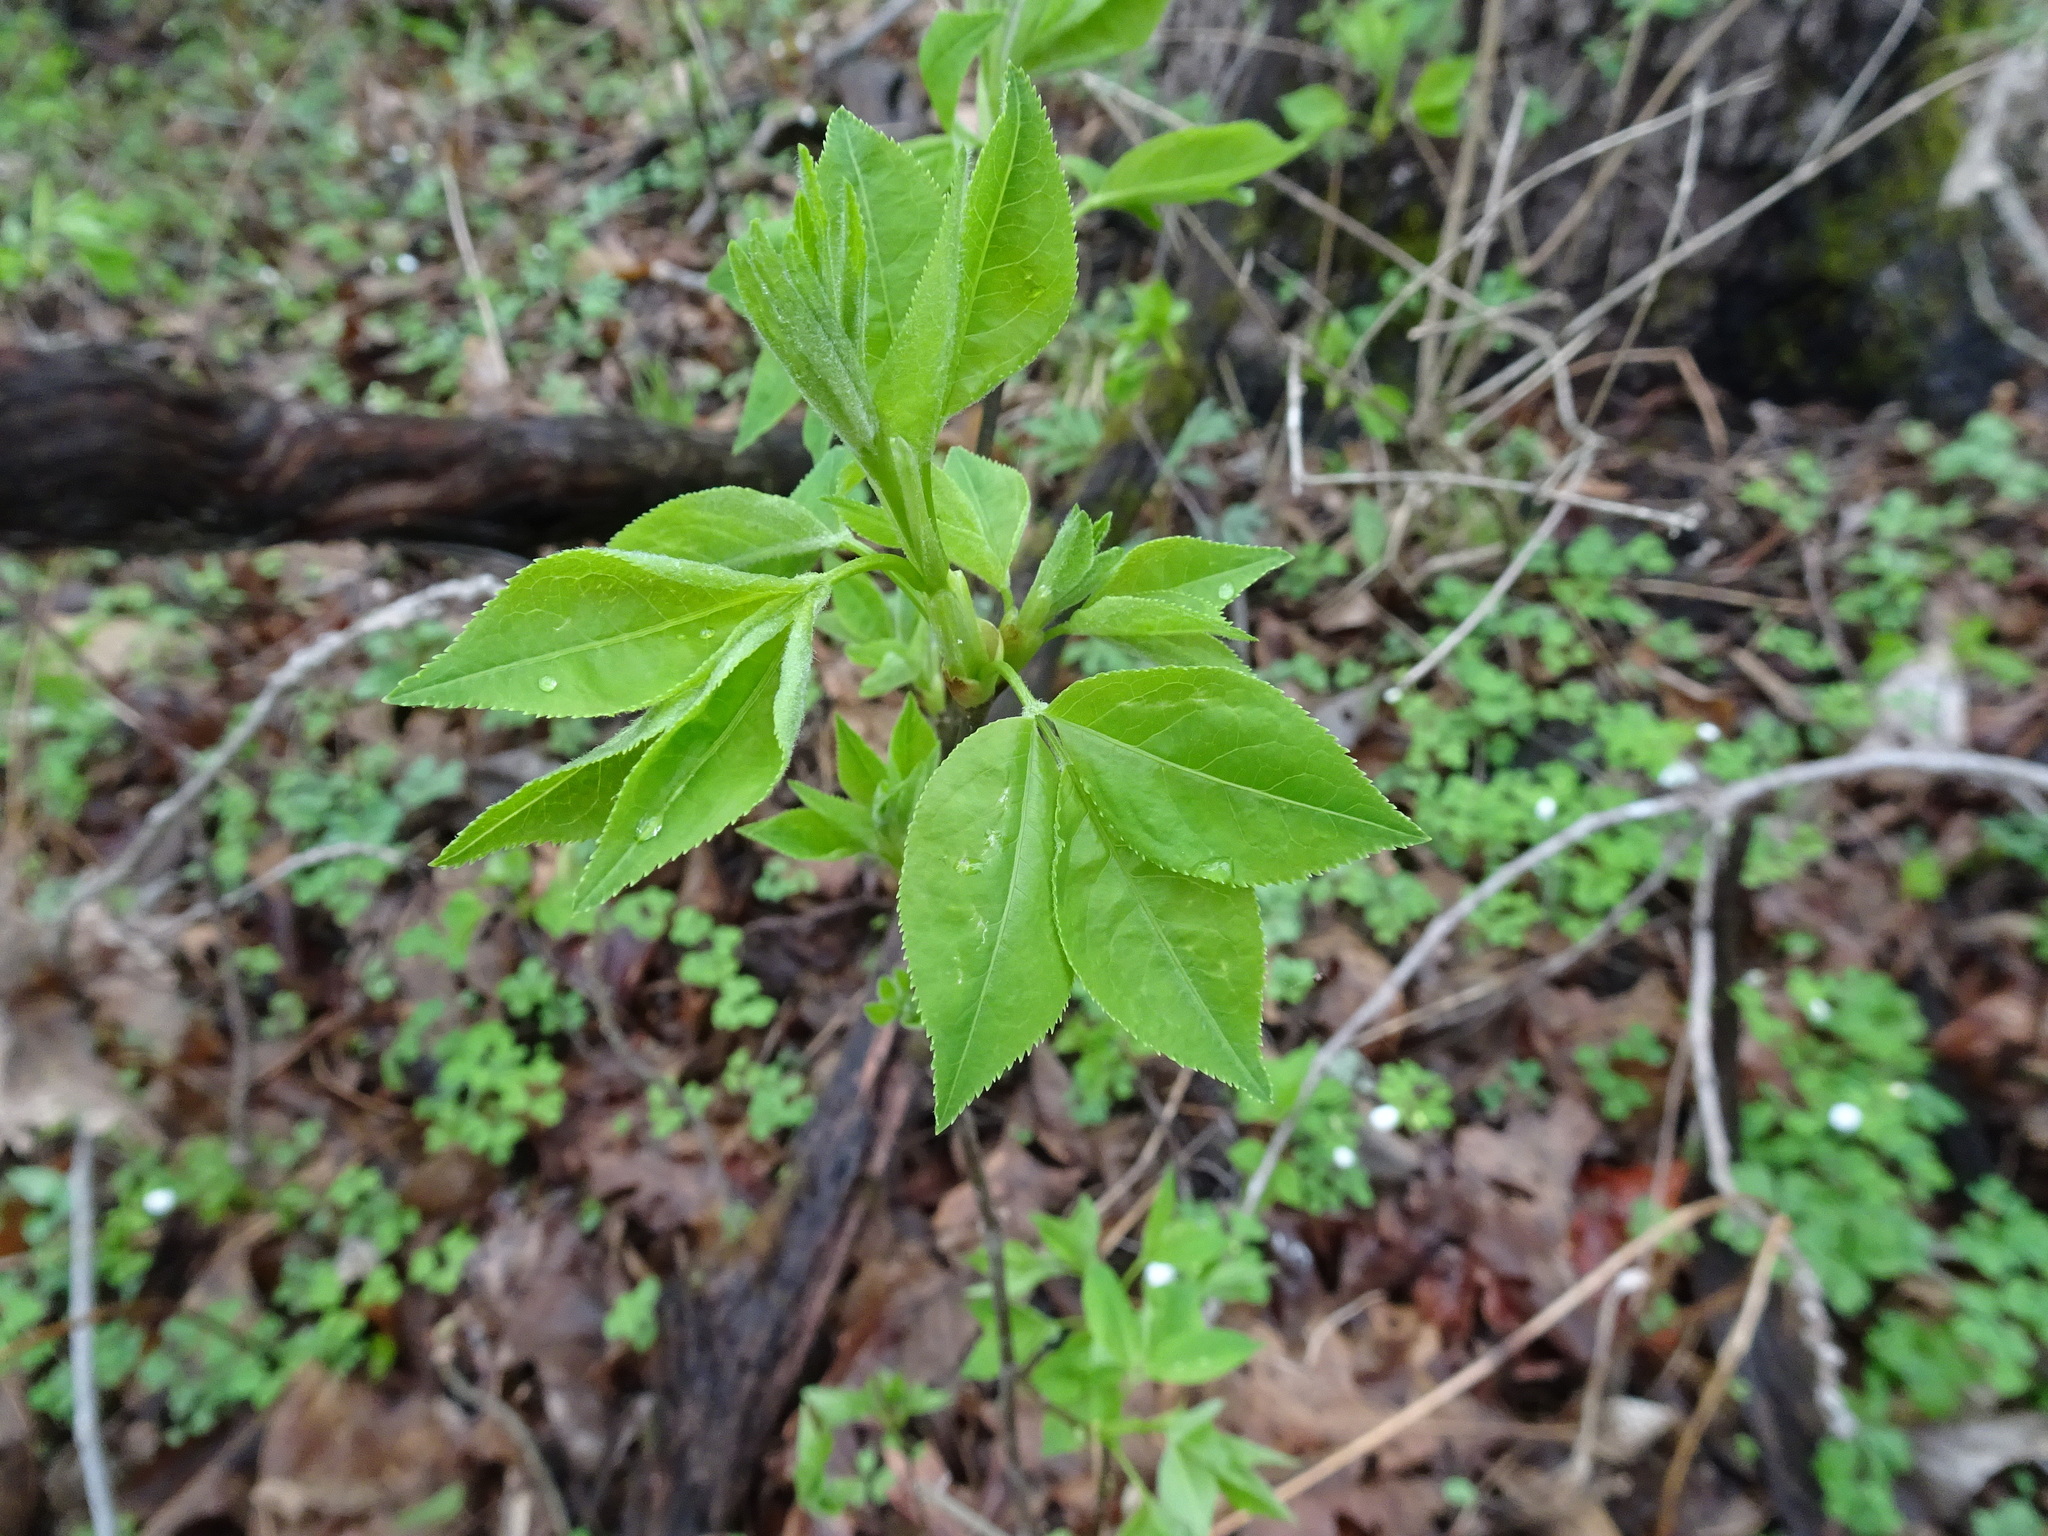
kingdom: Plantae
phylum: Tracheophyta
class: Magnoliopsida
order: Crossosomatales
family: Staphyleaceae
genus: Staphylea
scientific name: Staphylea trifolia
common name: American bladdernut
